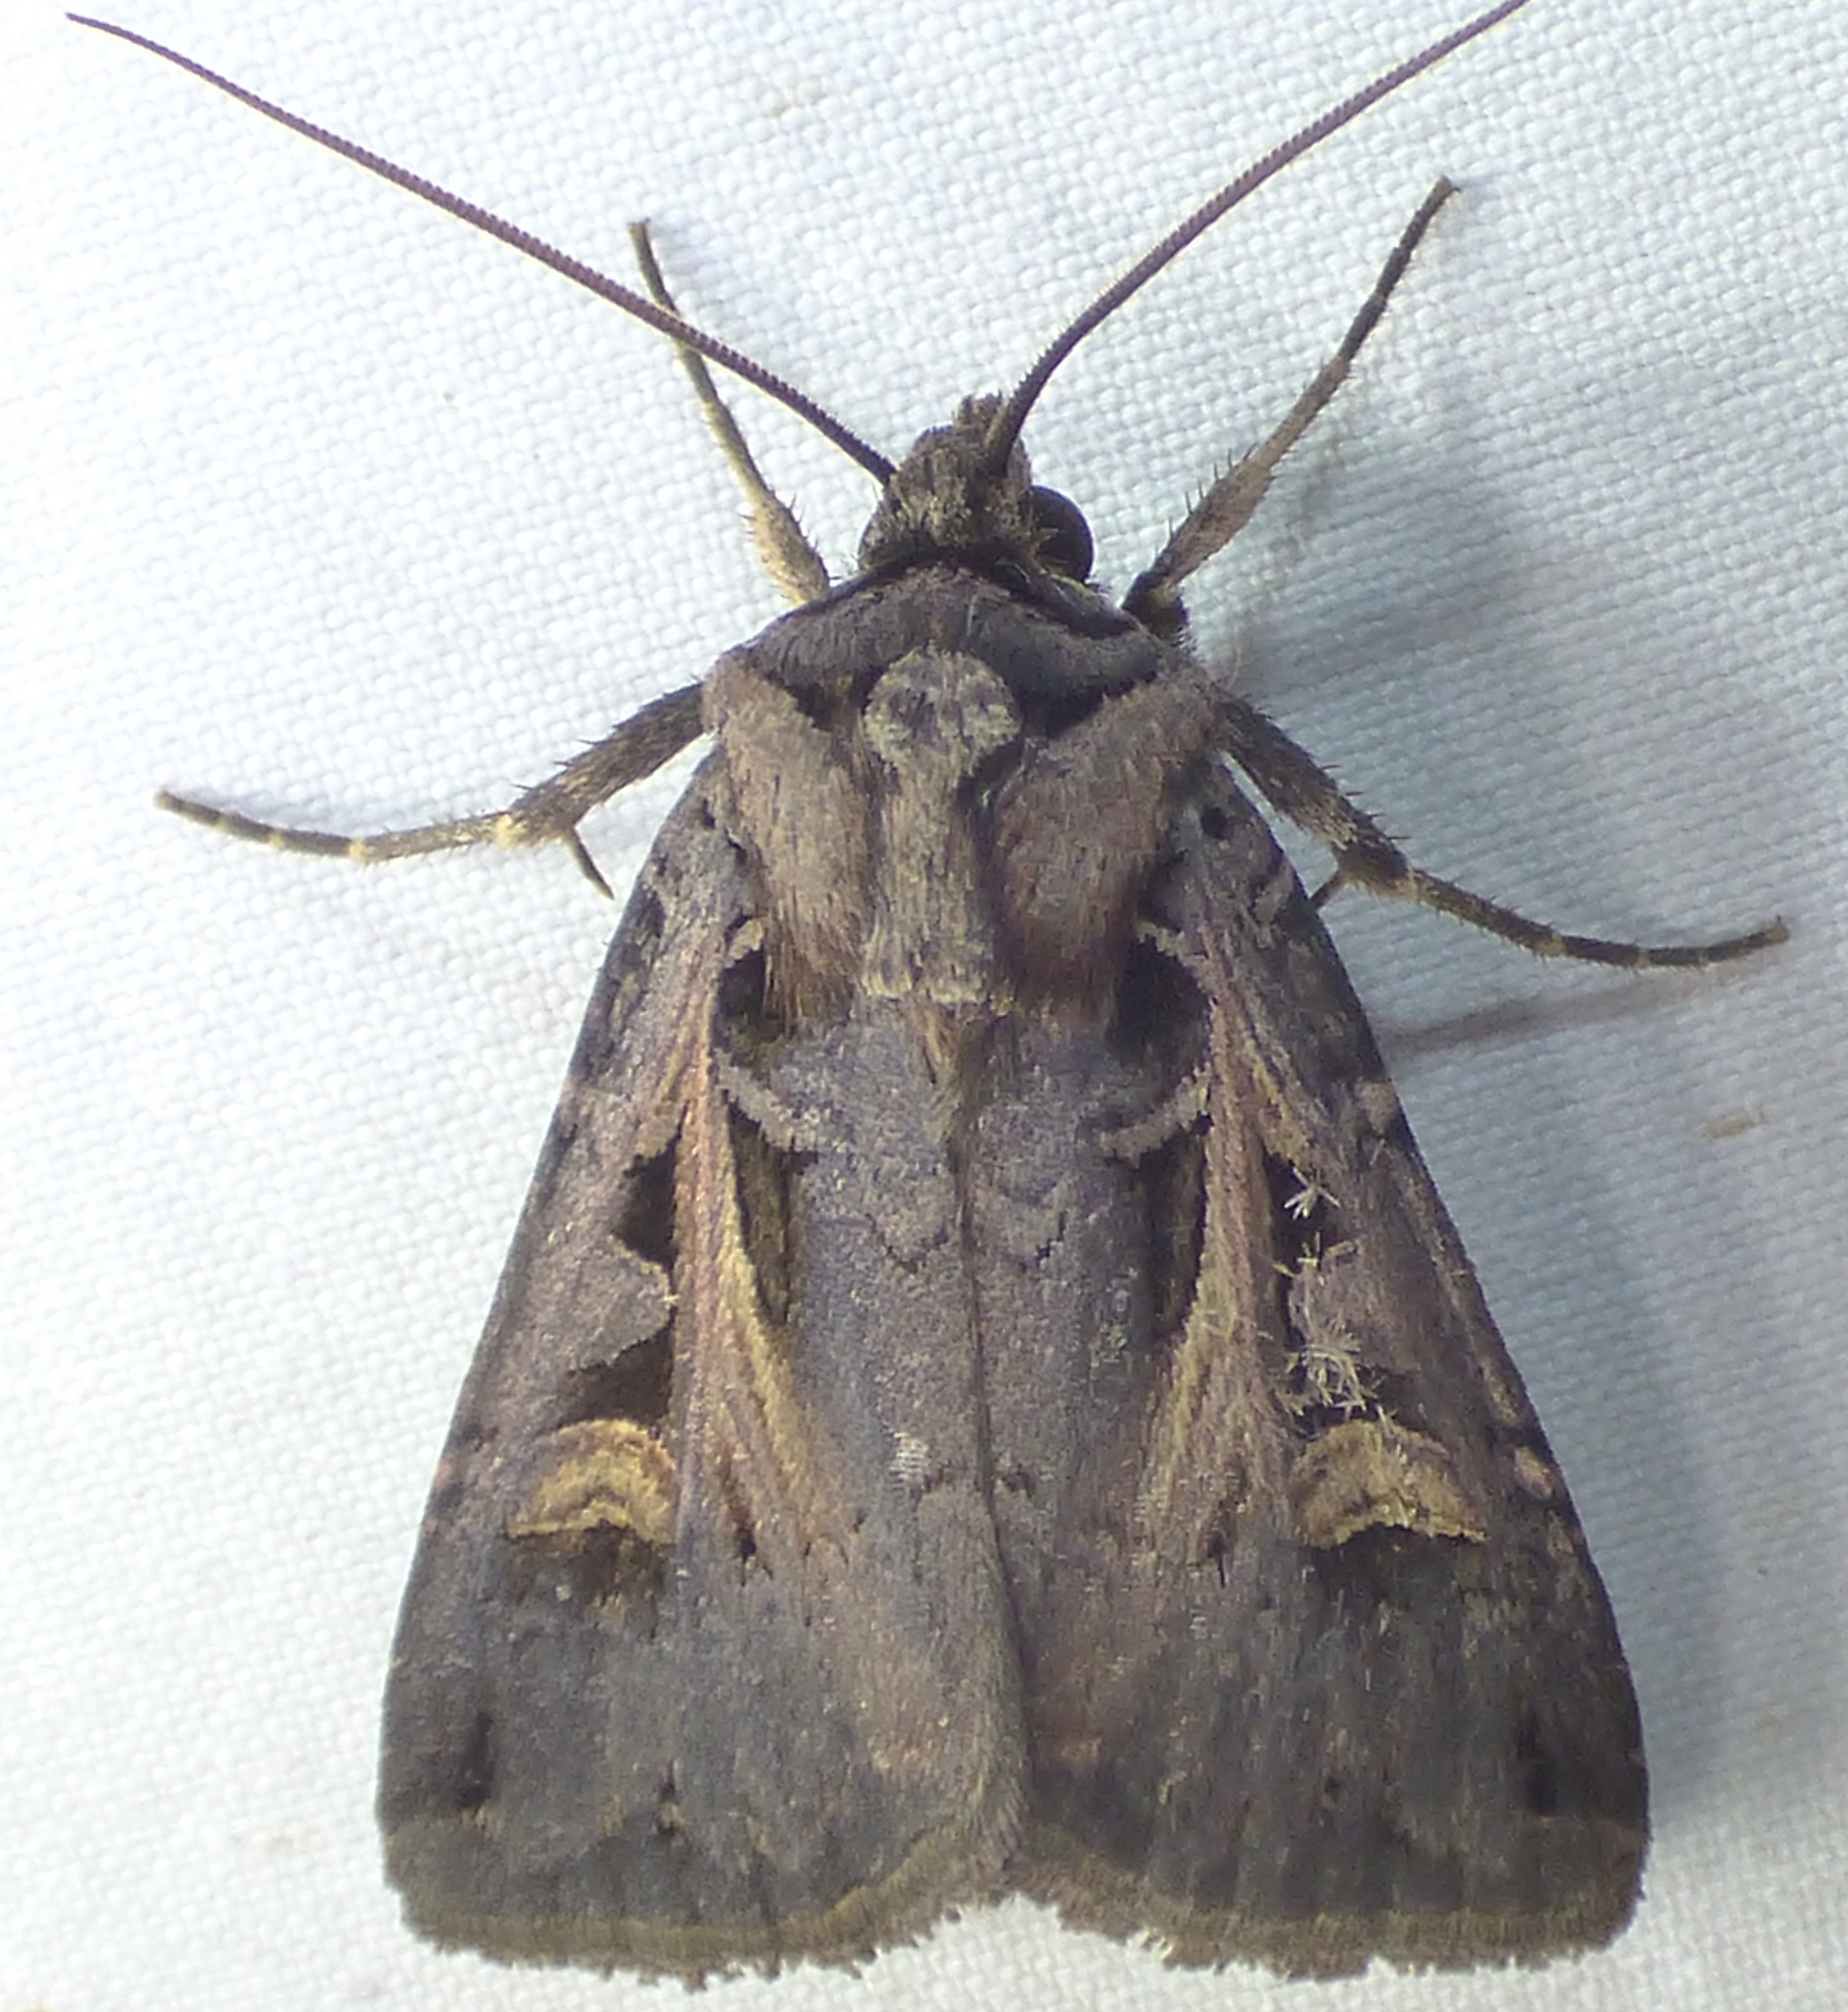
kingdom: Animalia
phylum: Arthropoda
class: Insecta
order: Lepidoptera
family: Noctuidae
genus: Feltia
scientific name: Feltia herilis
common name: Master's dart
